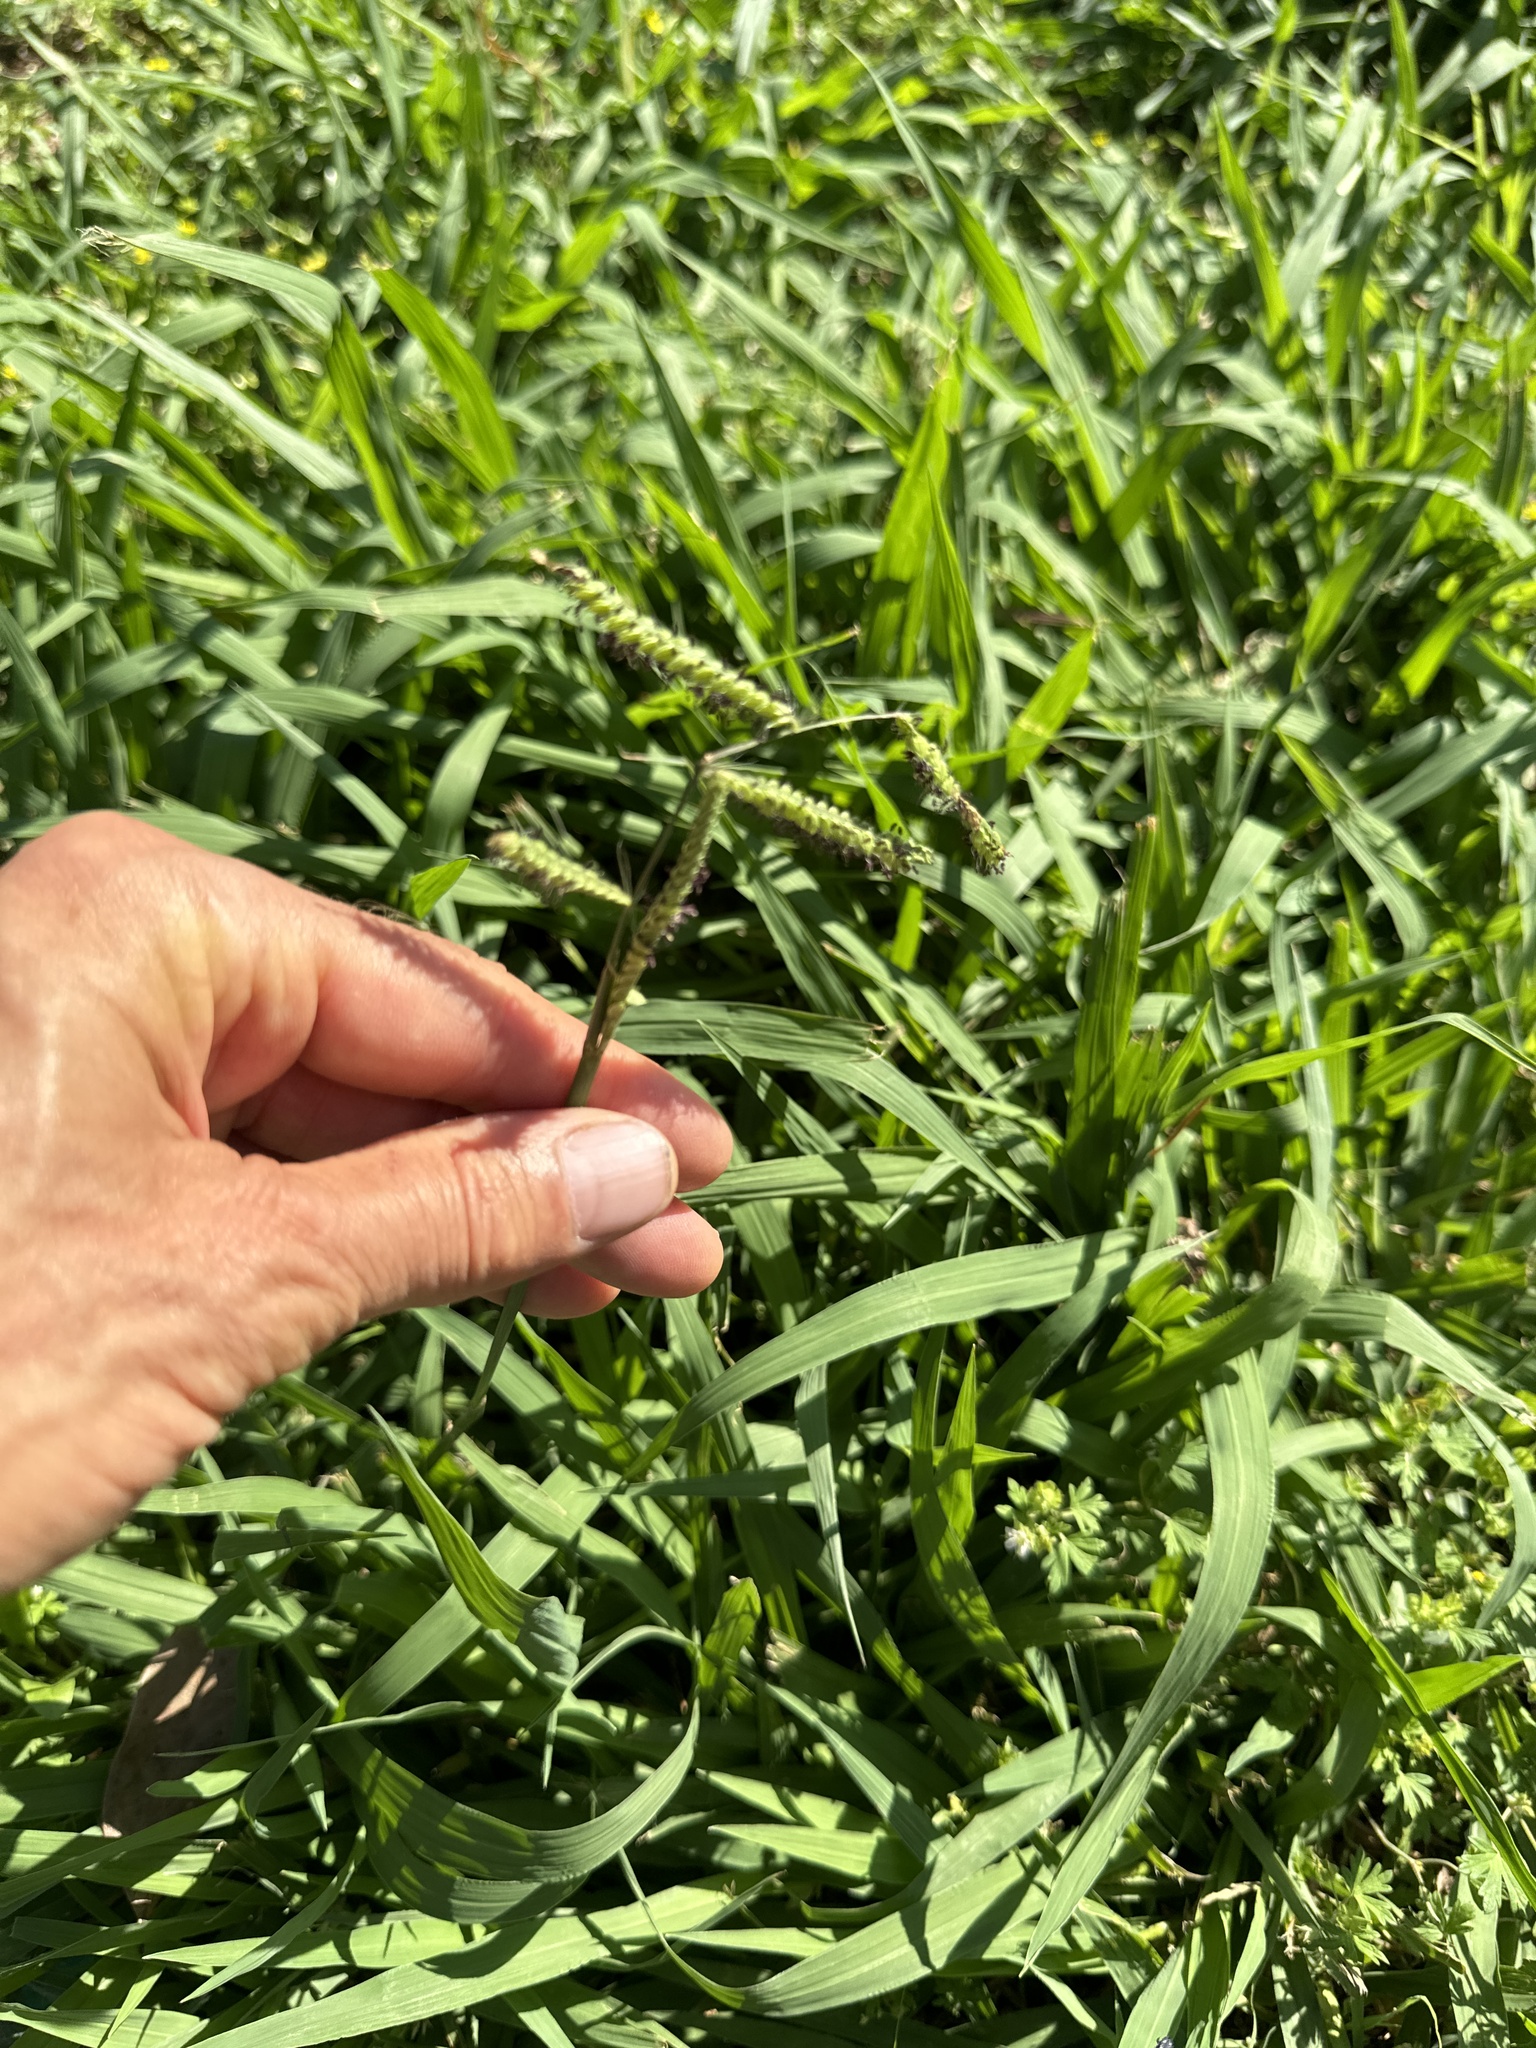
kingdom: Plantae
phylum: Tracheophyta
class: Liliopsida
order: Poales
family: Poaceae
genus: Paspalum
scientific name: Paspalum dilatatum
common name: Dallisgrass
